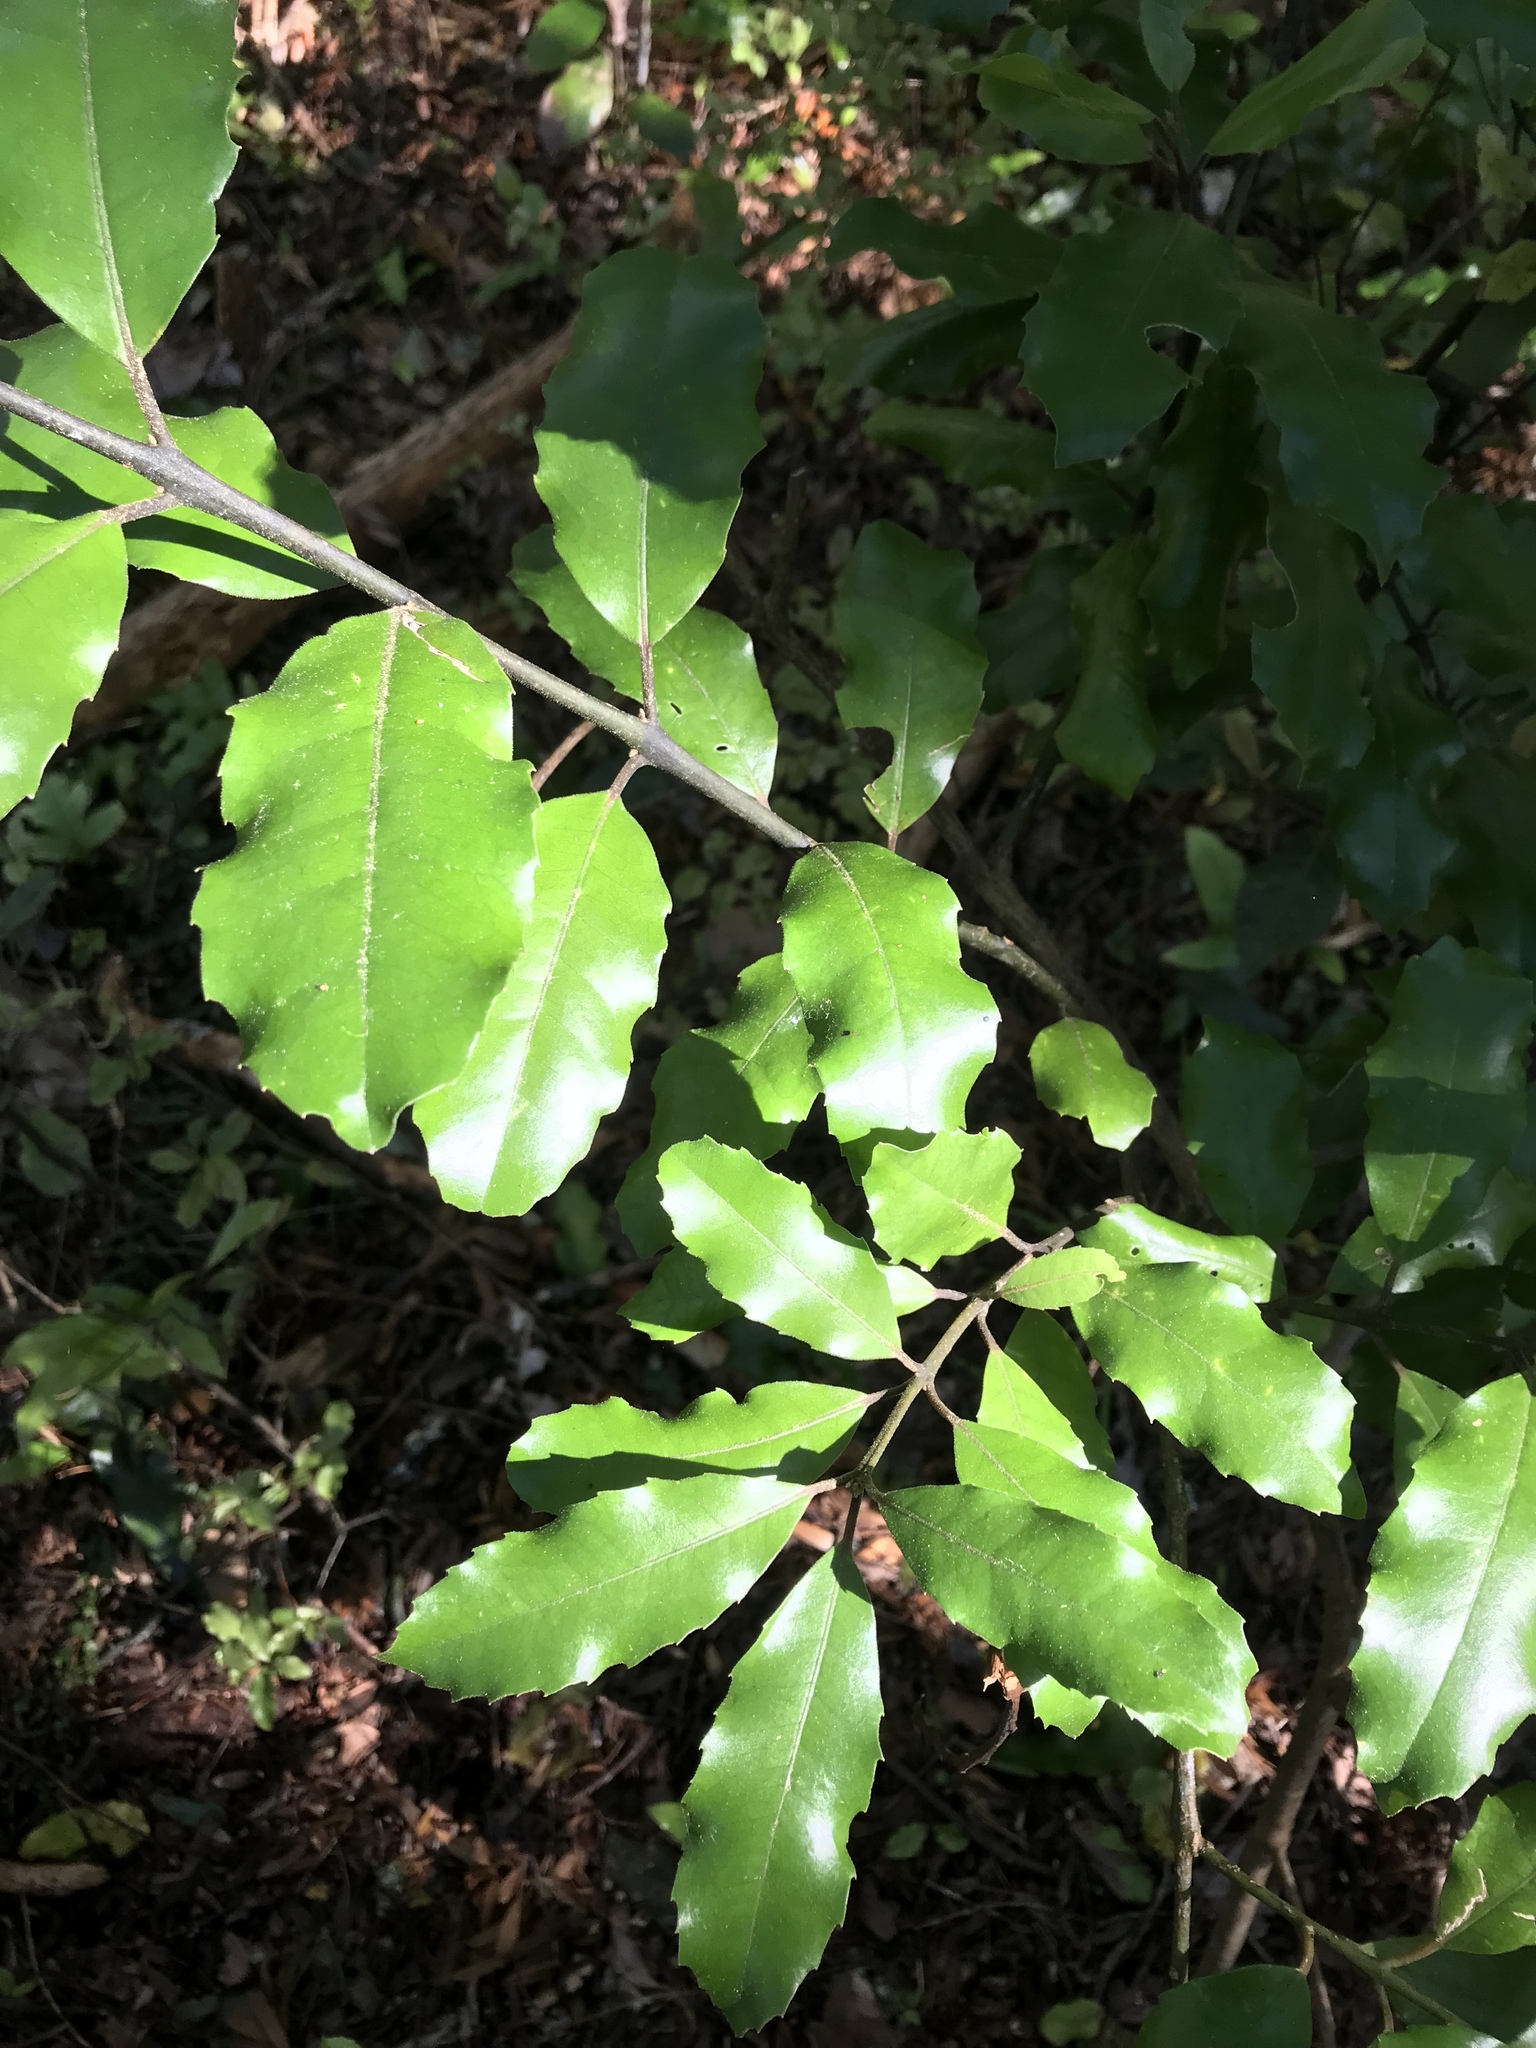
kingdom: Plantae
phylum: Tracheophyta
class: Magnoliopsida
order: Laurales
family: Monimiaceae
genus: Hedycarya
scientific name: Hedycarya arborea
